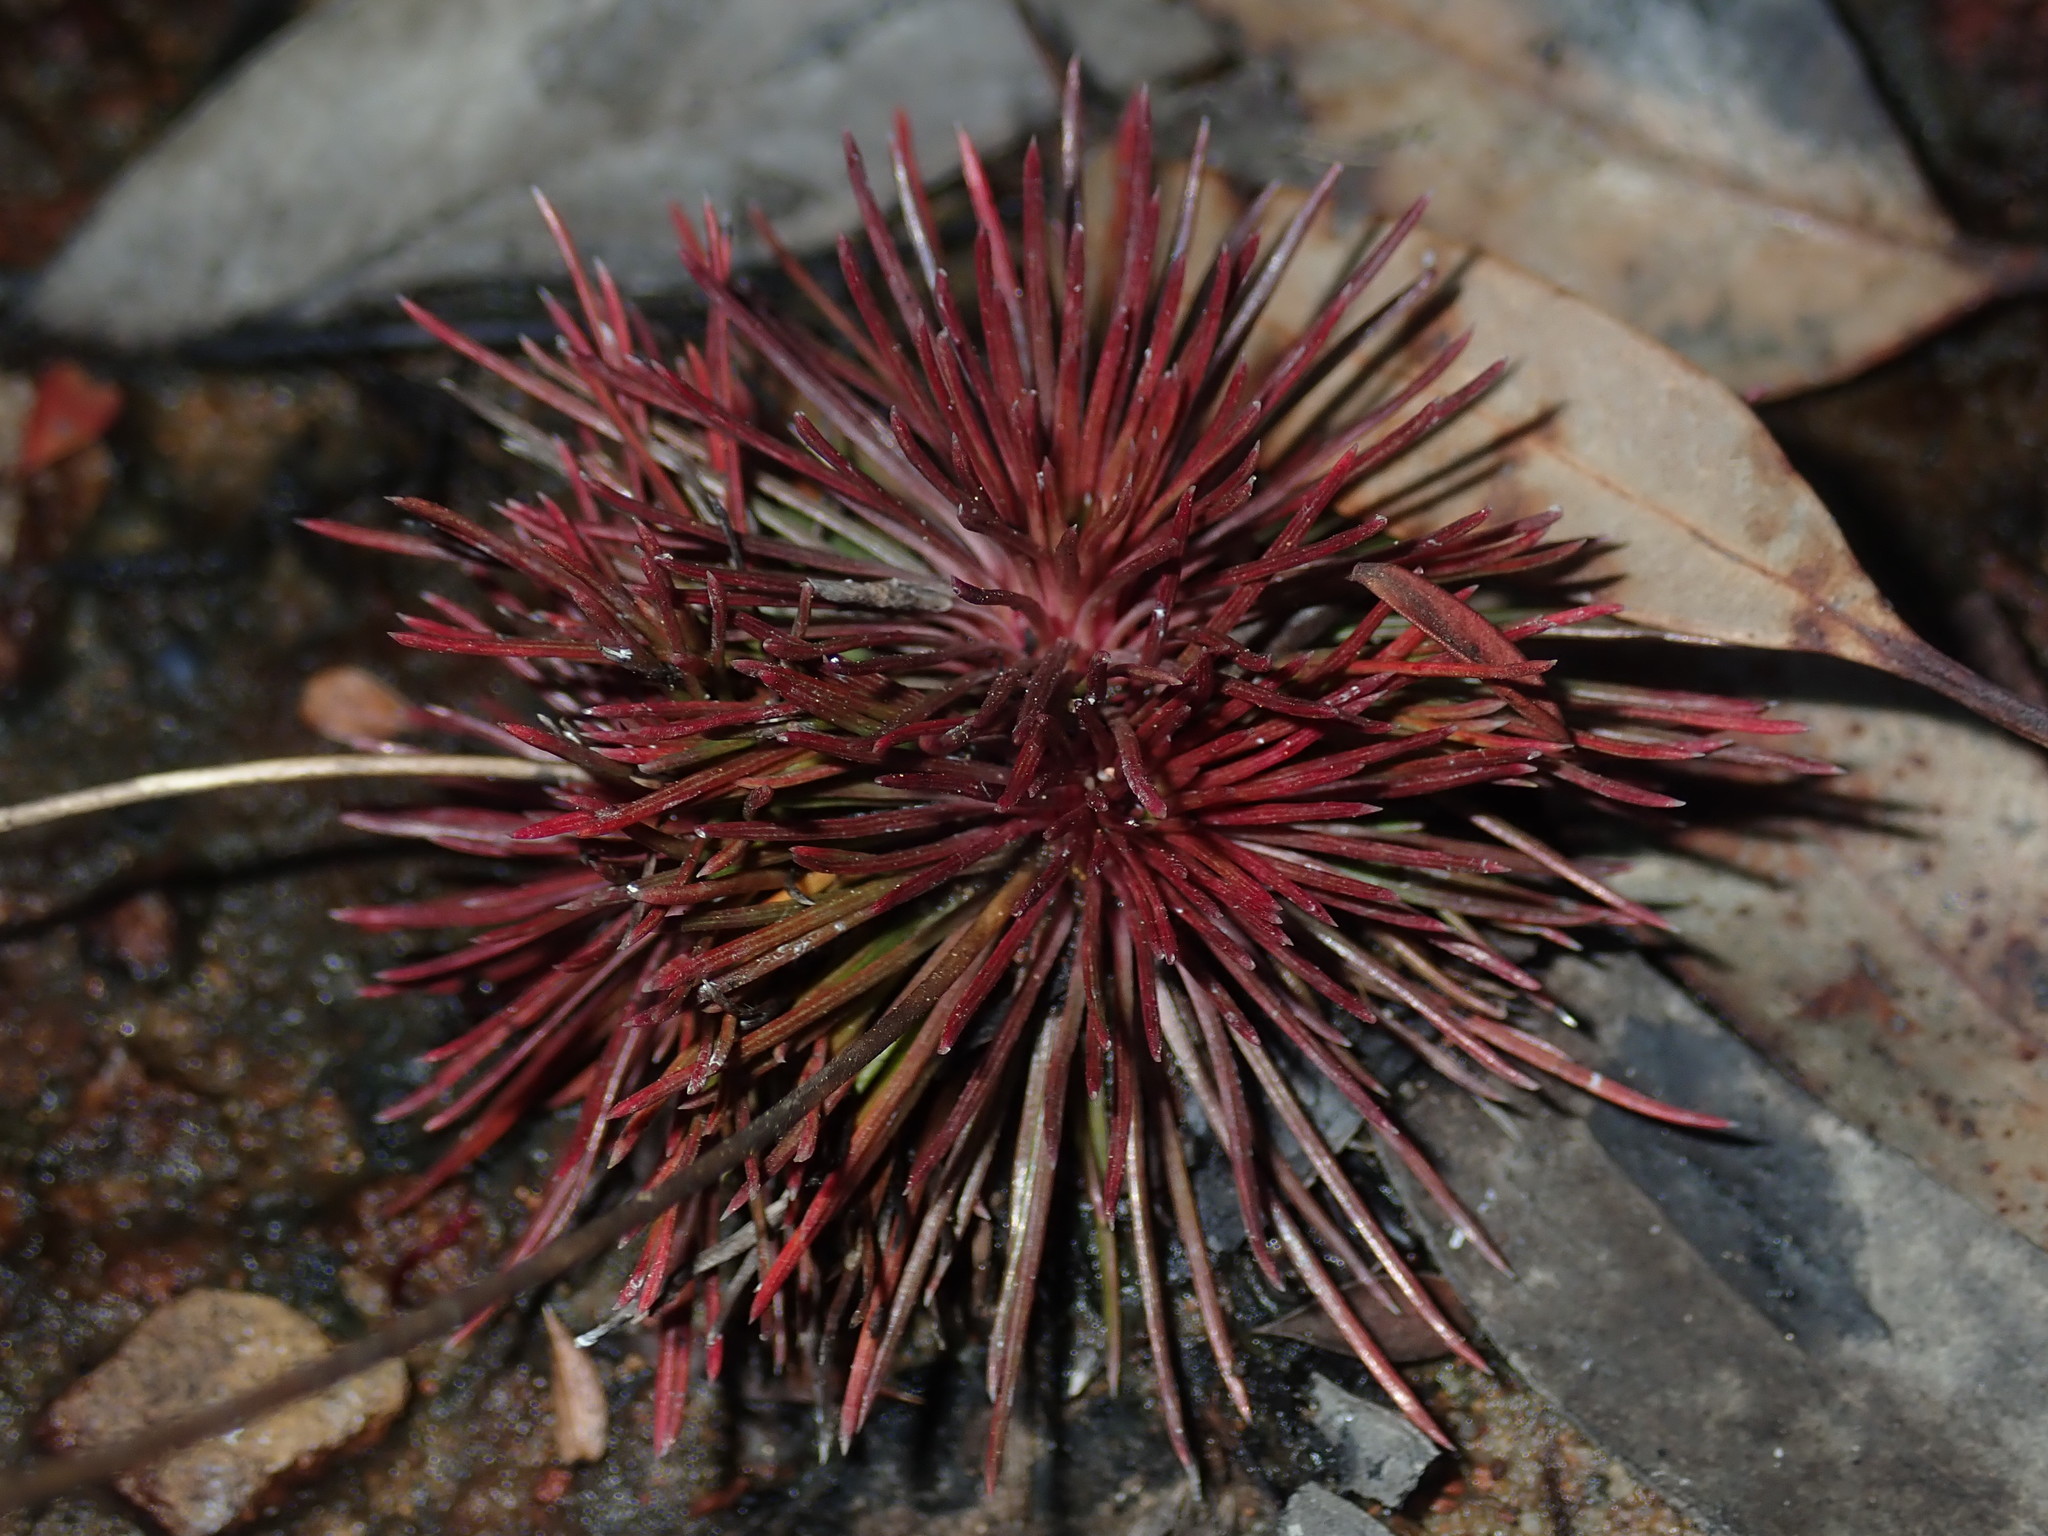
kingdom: Plantae
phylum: Tracheophyta
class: Magnoliopsida
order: Asterales
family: Stylidiaceae
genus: Stylidium
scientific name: Stylidium lineare
